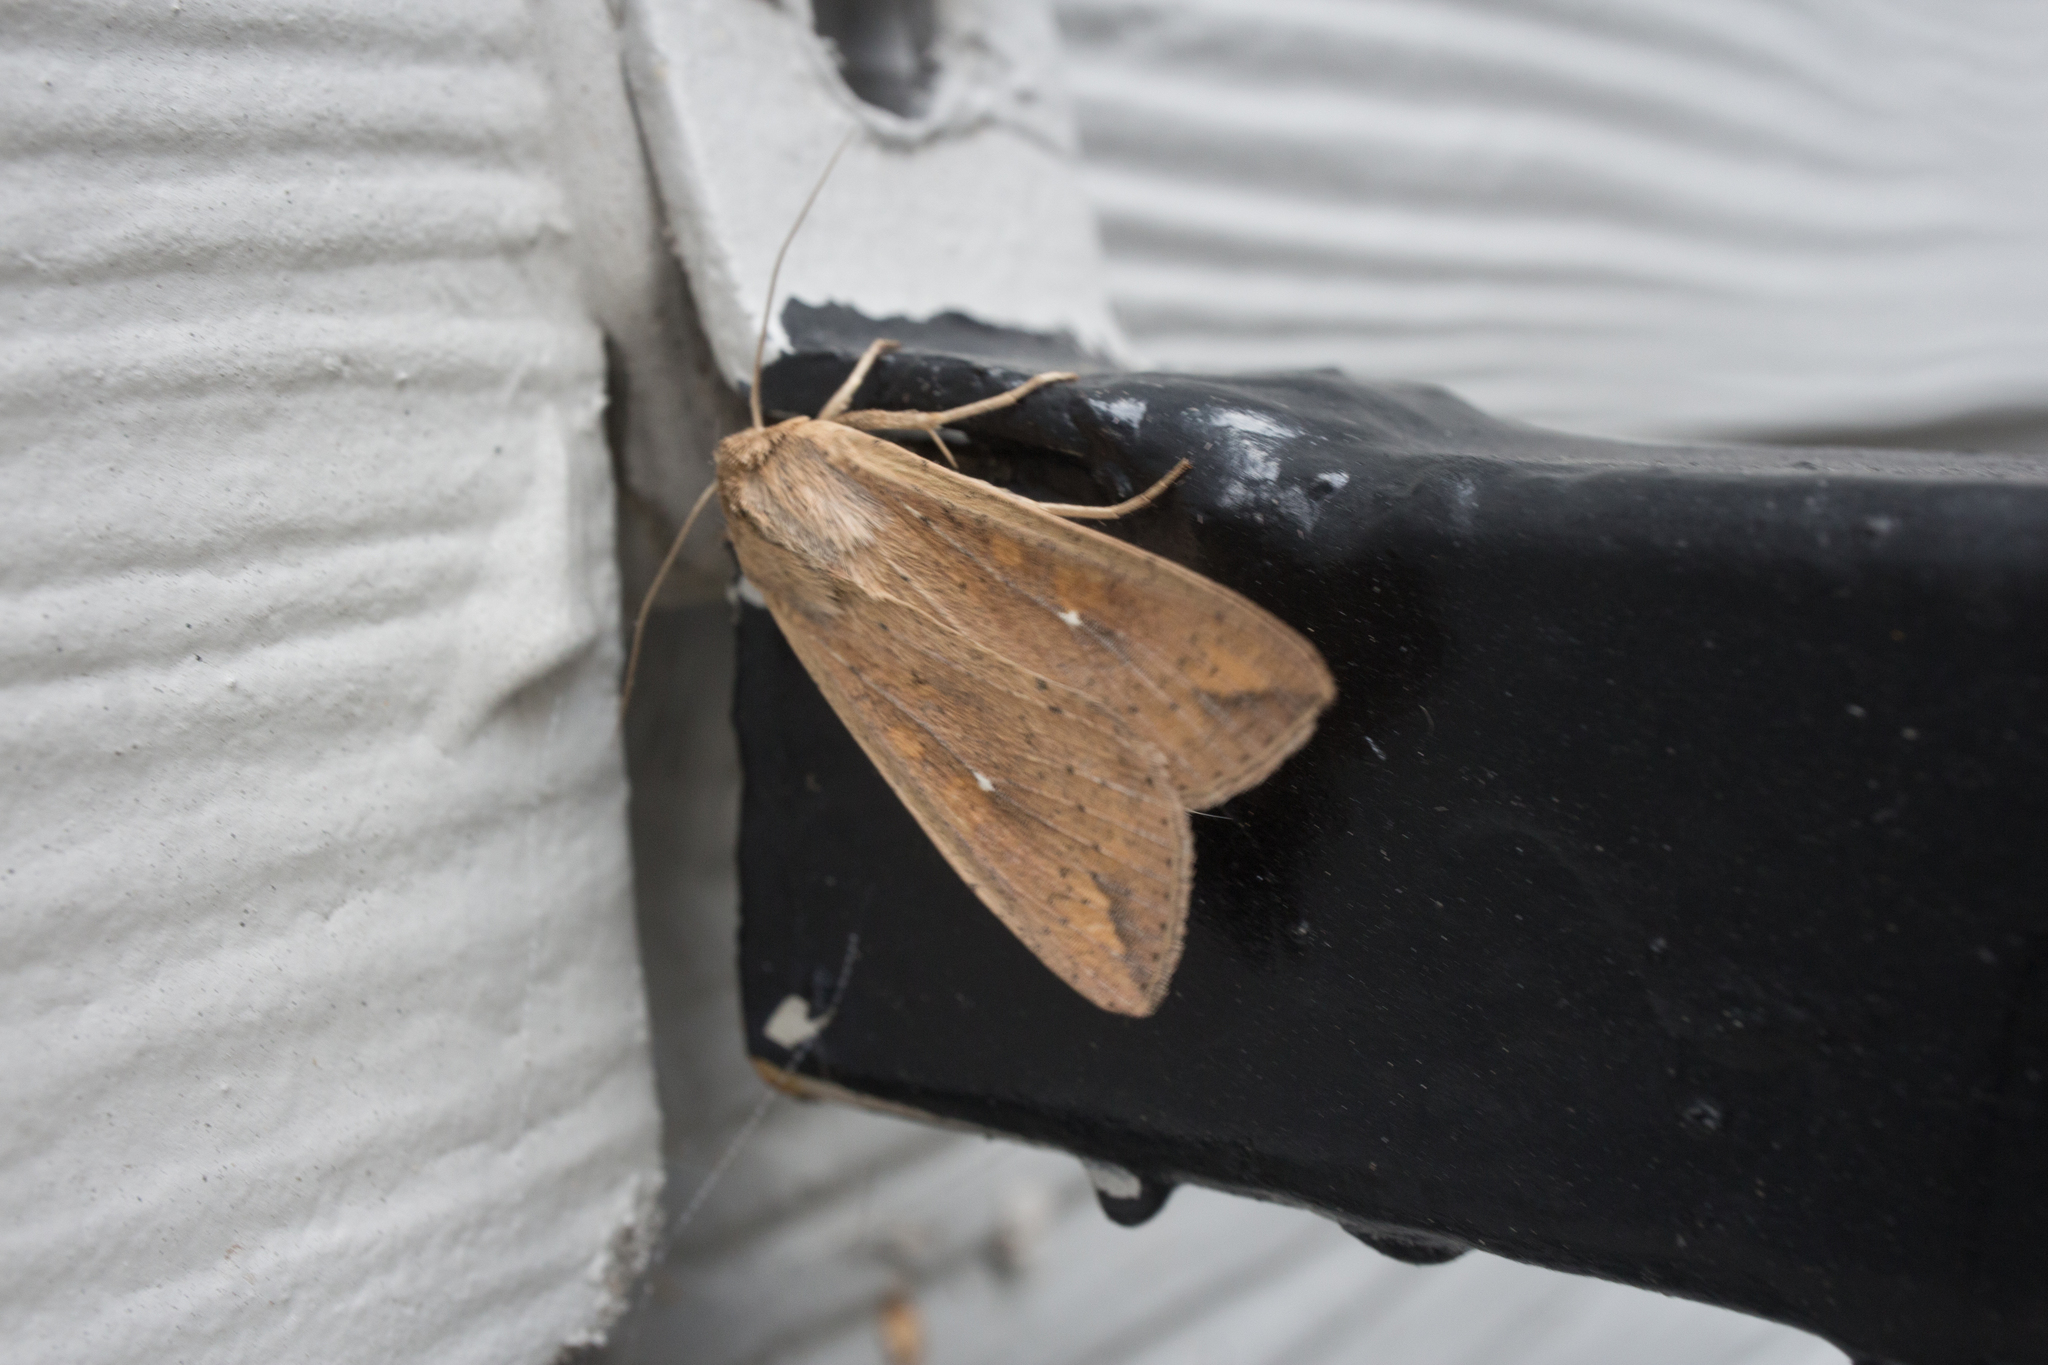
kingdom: Animalia
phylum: Arthropoda
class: Insecta
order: Lepidoptera
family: Noctuidae
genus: Mythimna
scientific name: Mythimna unipuncta
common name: White-speck
